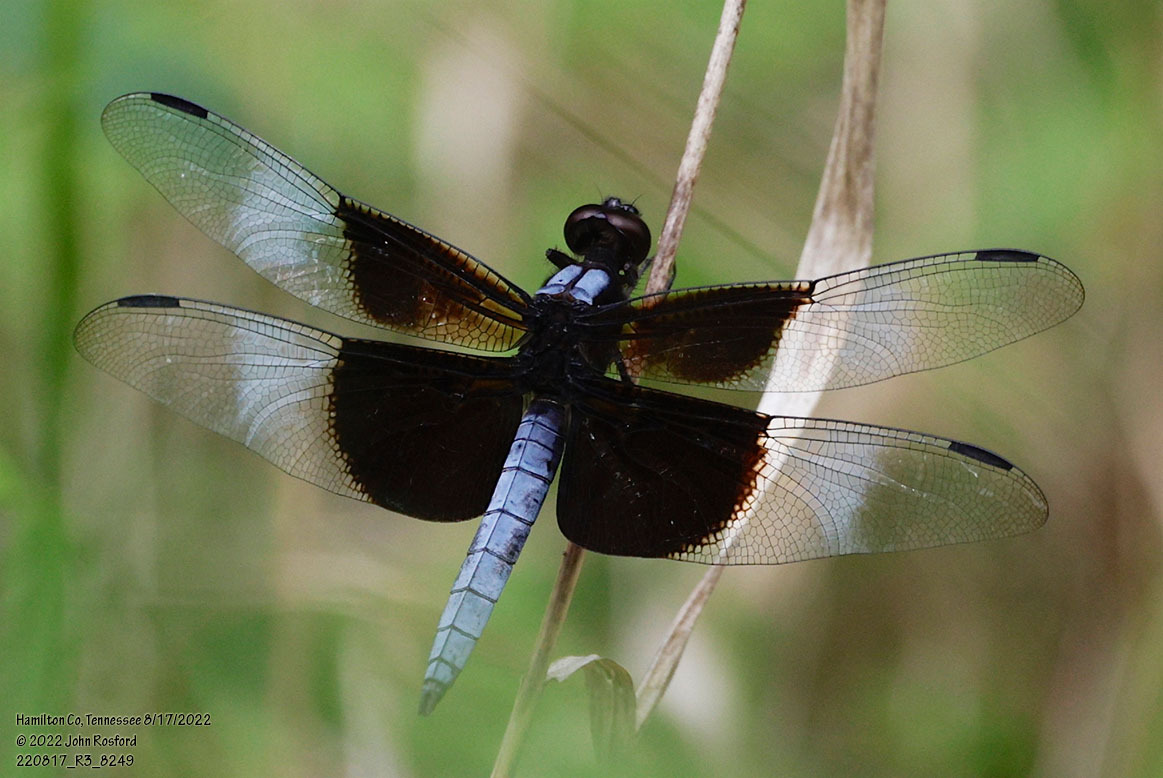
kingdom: Animalia
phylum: Arthropoda
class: Insecta
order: Odonata
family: Libellulidae
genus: Libellula
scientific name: Libellula luctuosa
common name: Widow skimmer
